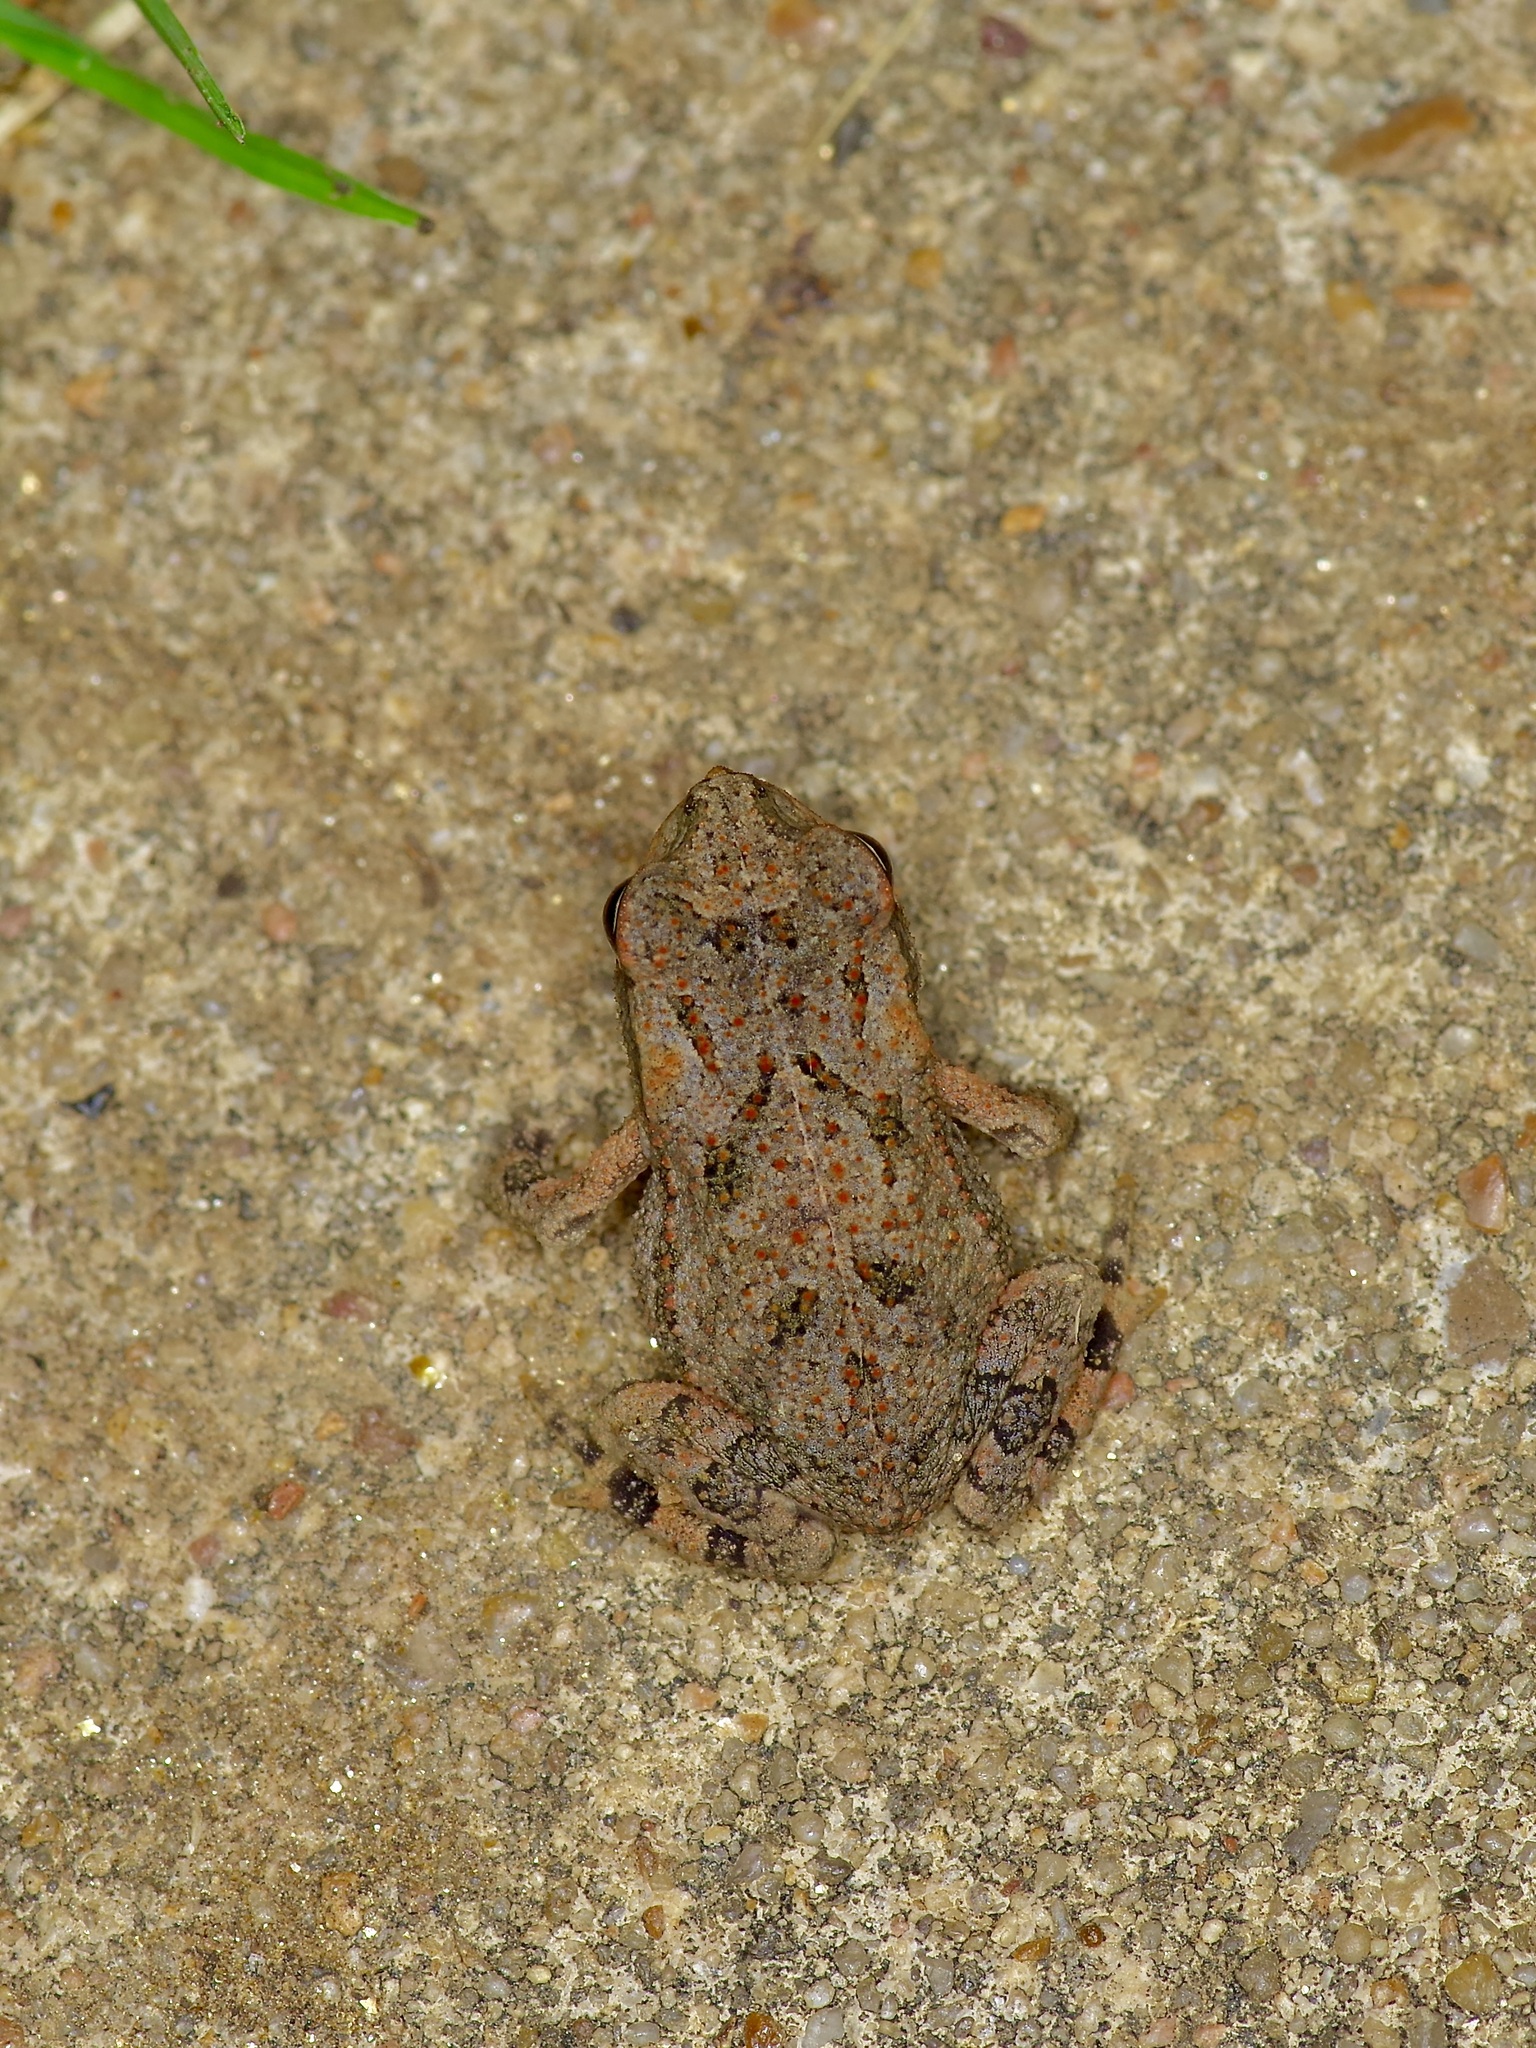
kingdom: Animalia
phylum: Chordata
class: Amphibia
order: Anura
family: Bufonidae
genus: Incilius
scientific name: Incilius nebulifer
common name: Gulf coast toad
